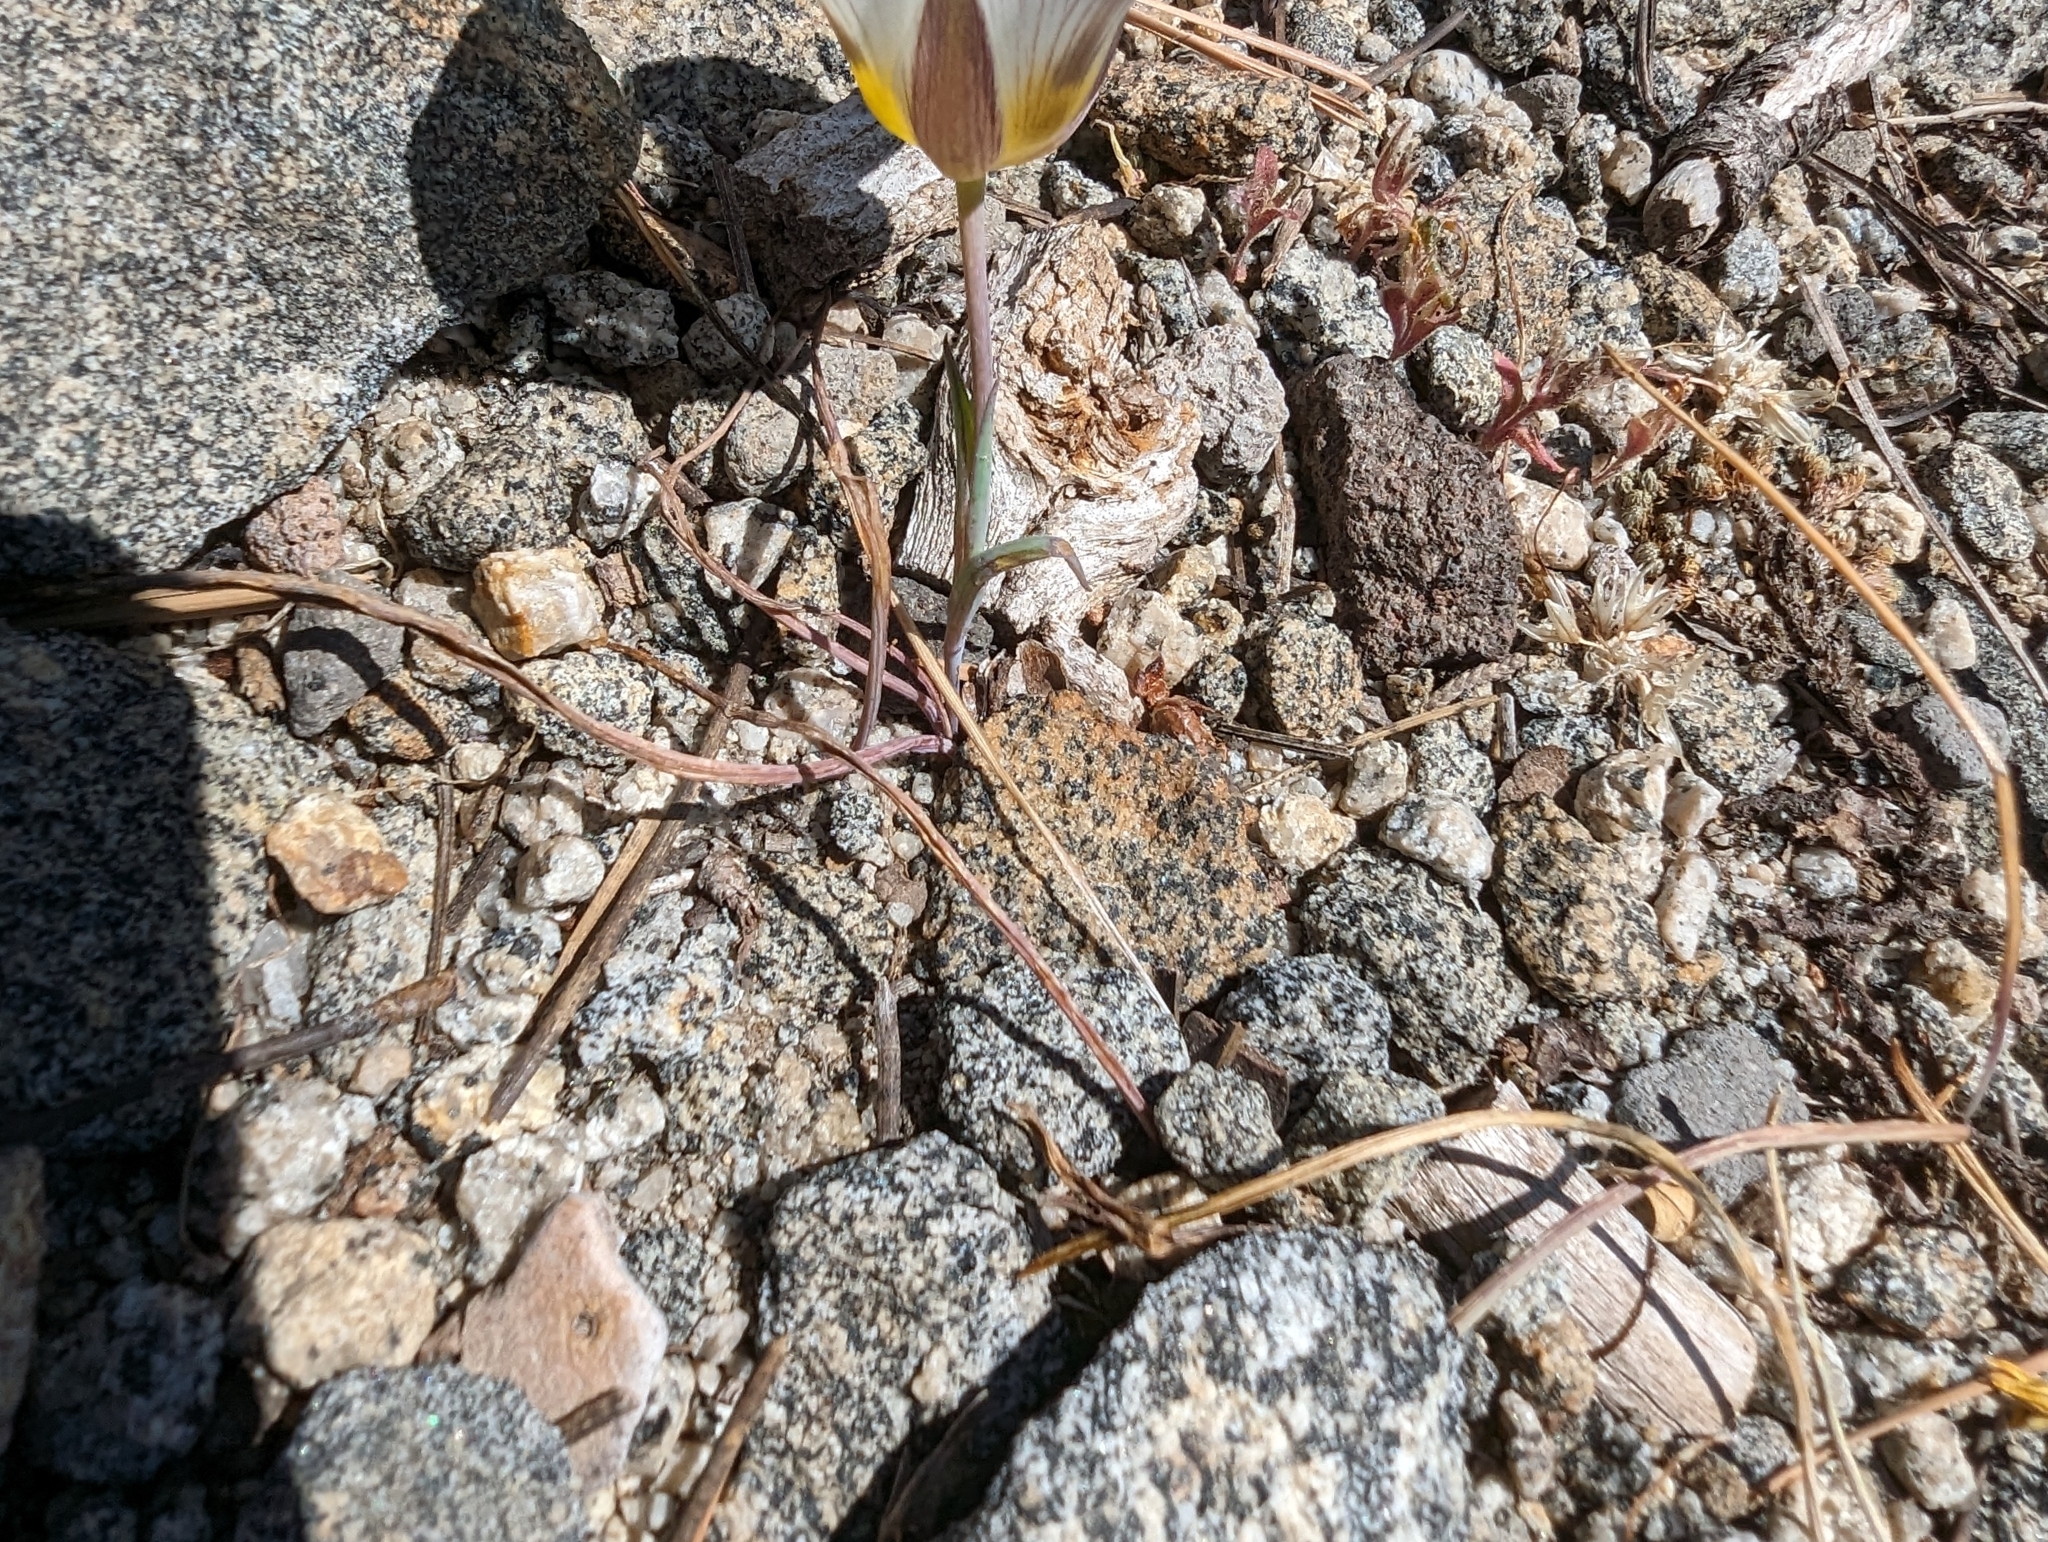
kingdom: Plantae
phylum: Tracheophyta
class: Liliopsida
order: Liliales
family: Liliaceae
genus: Calochortus
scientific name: Calochortus leichtlinii
